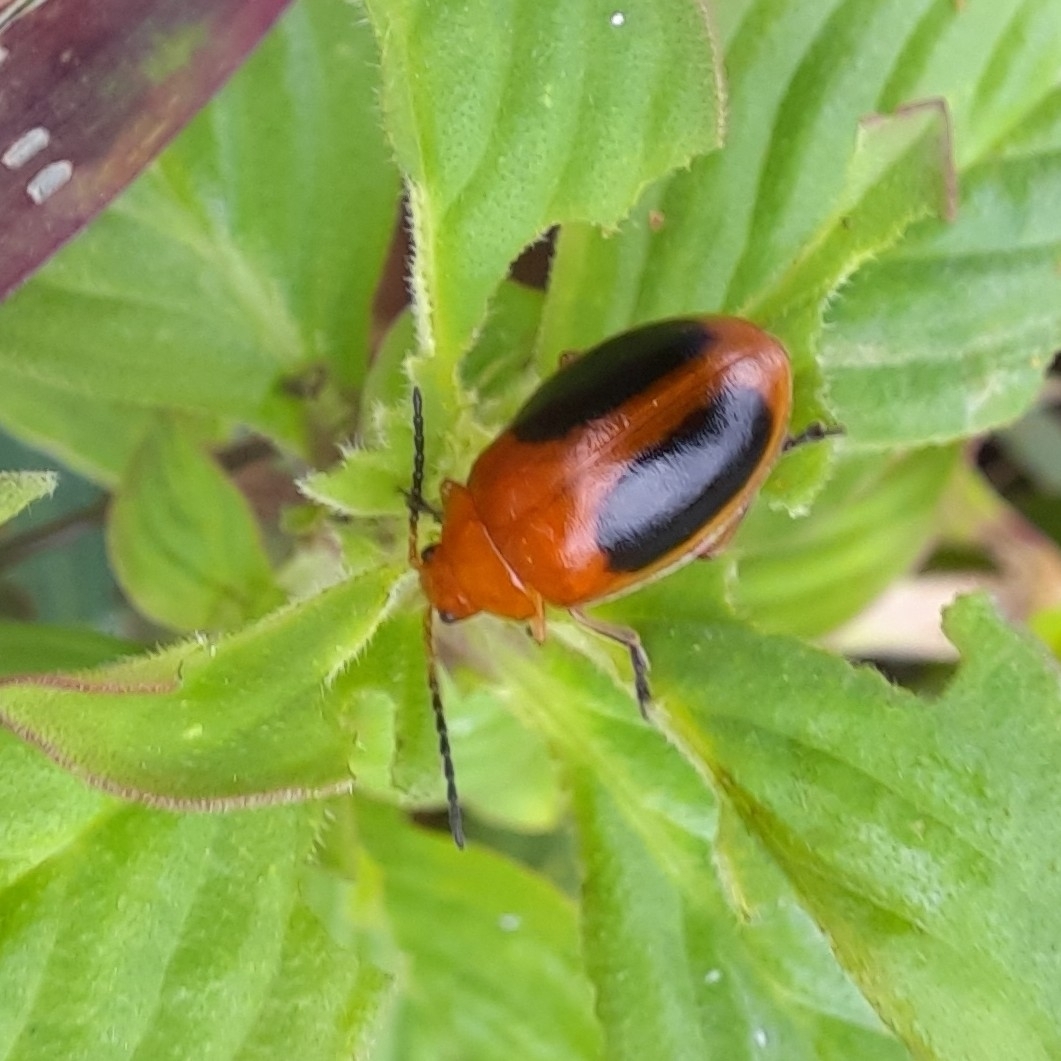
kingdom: Animalia
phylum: Arthropoda
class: Insecta
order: Coleoptera
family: Chrysomelidae
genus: Oides
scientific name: Oides affinis
